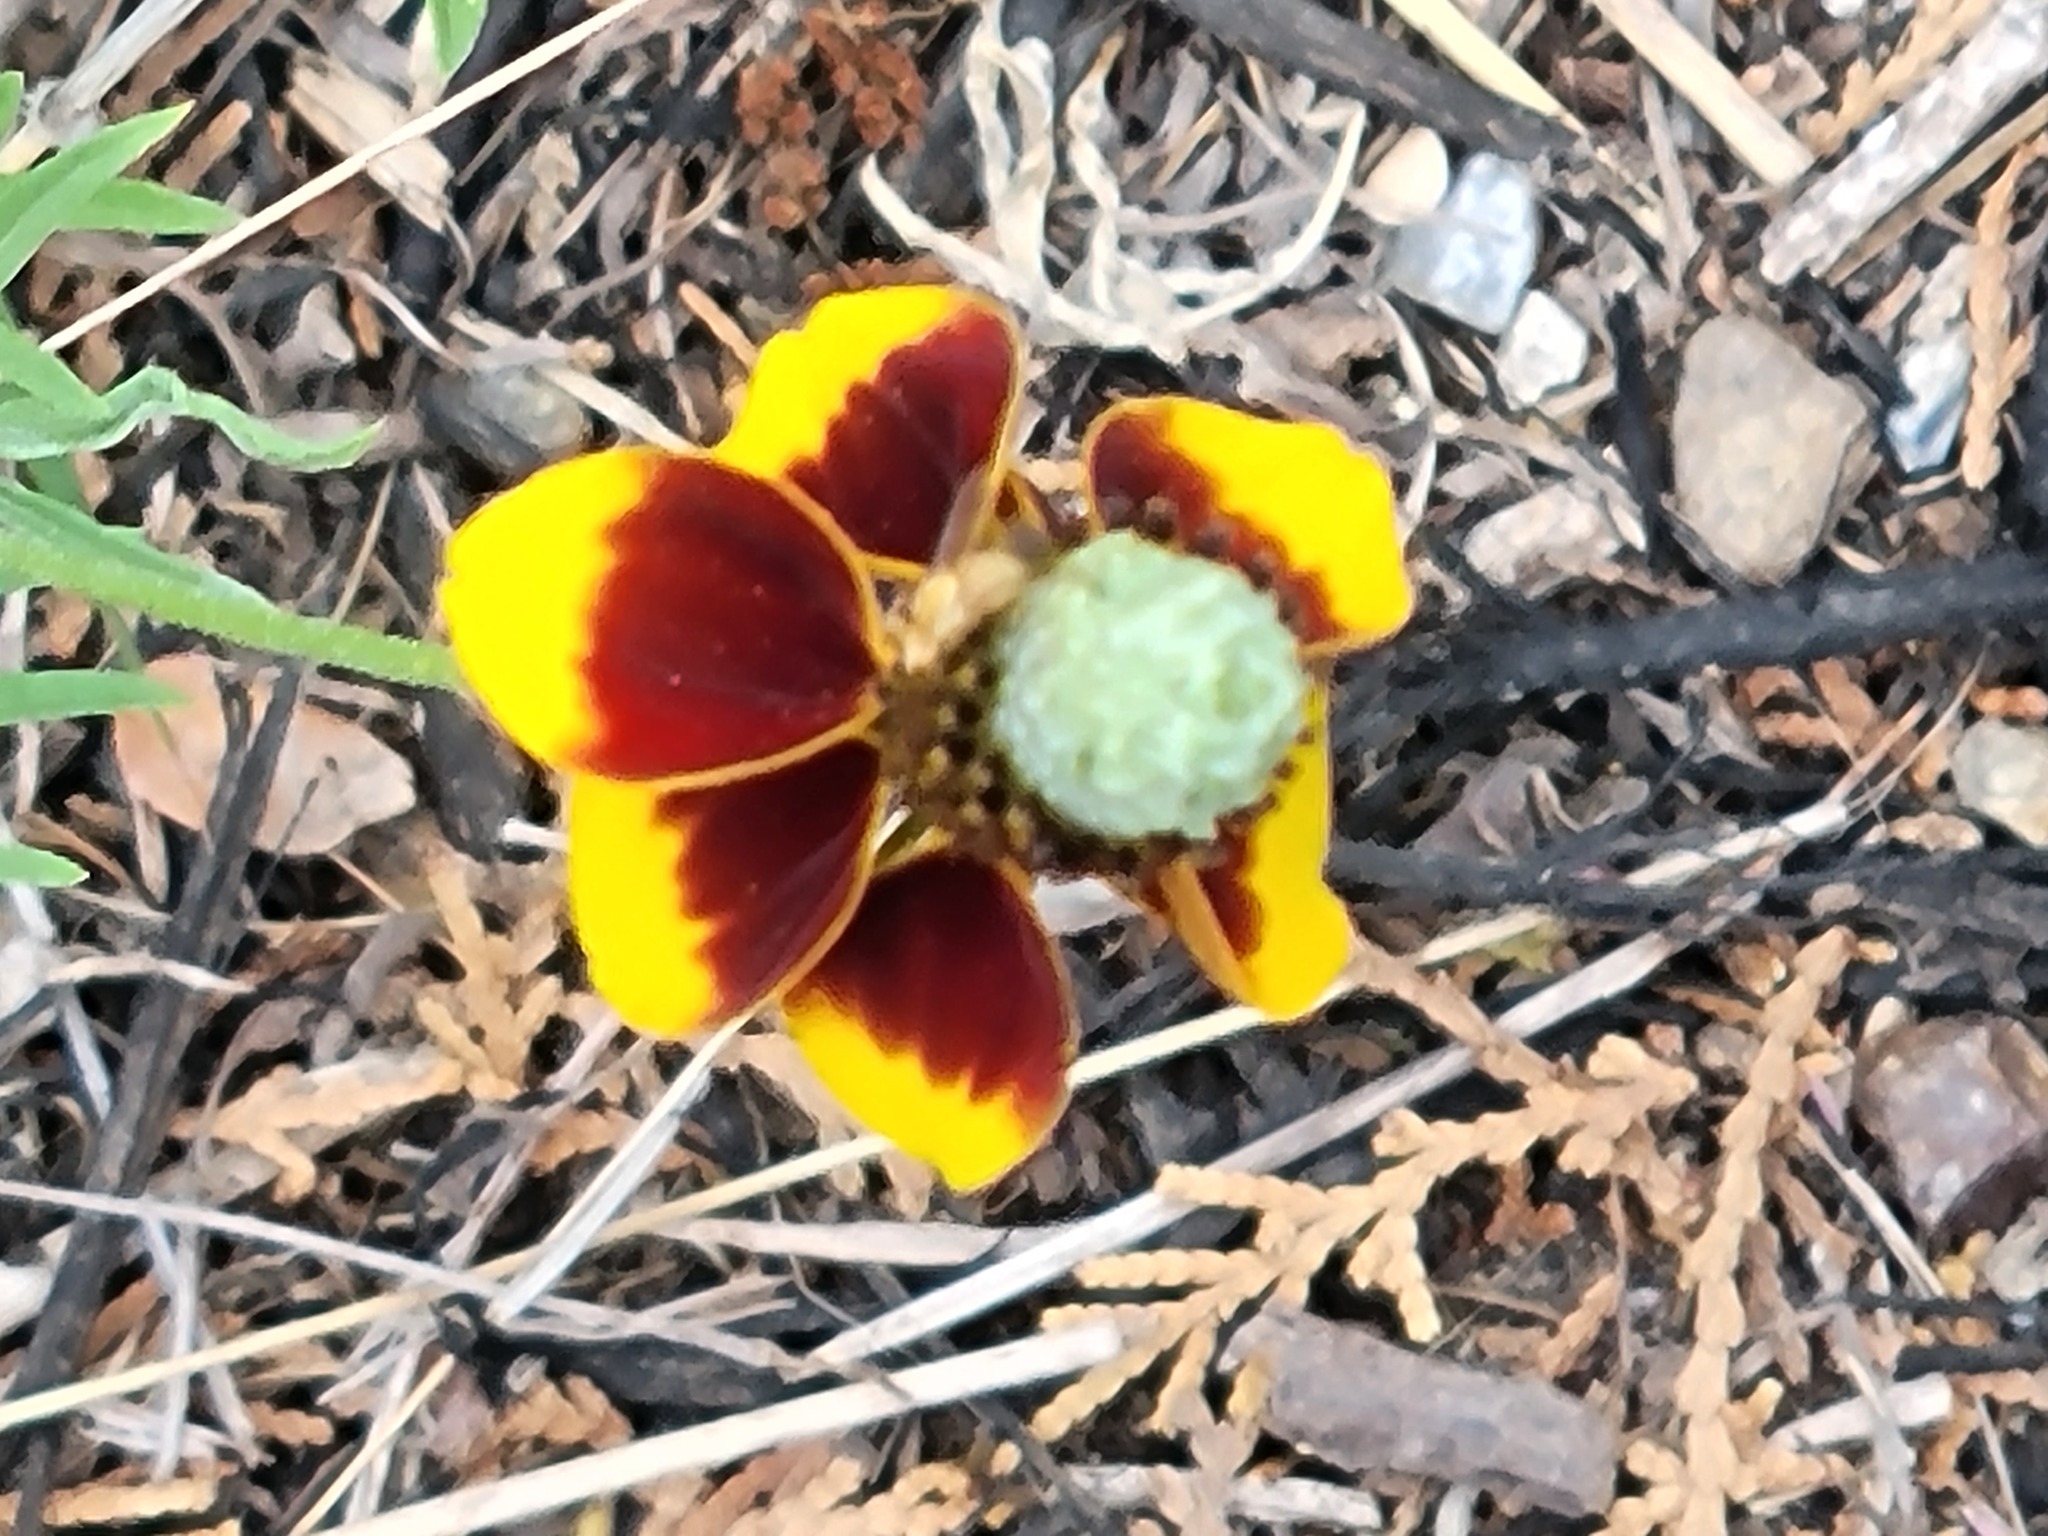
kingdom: Plantae
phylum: Tracheophyta
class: Magnoliopsida
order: Asterales
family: Asteraceae
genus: Ratibida
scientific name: Ratibida columnifera
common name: Prairie coneflower
